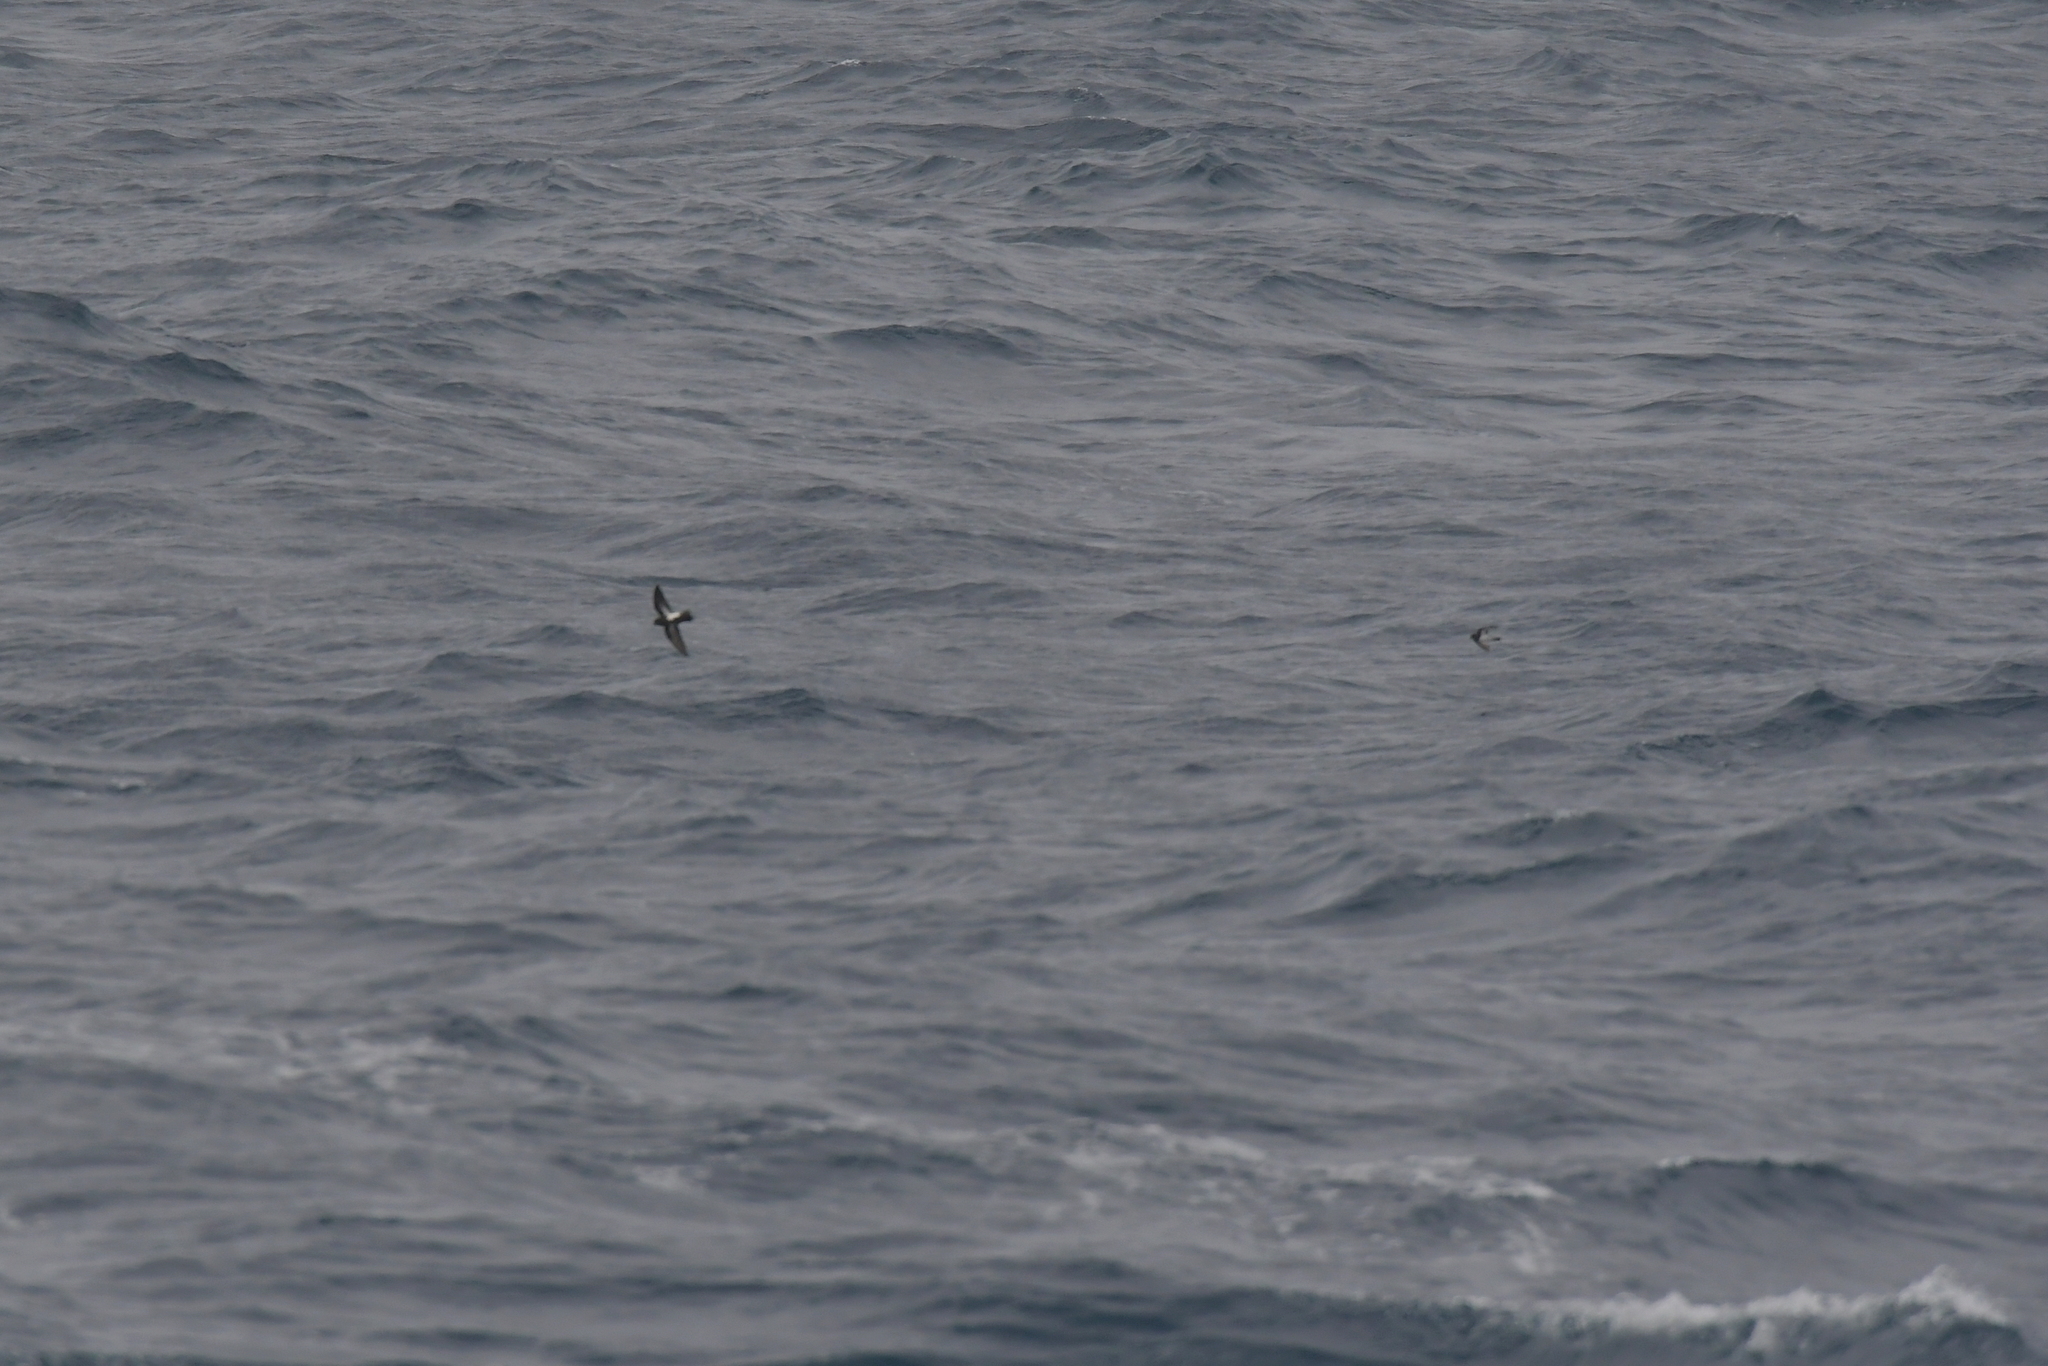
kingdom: Animalia
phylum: Chordata
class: Aves
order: Procellariiformes
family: Hydrobatidae
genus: Fregetta
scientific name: Fregetta tropica
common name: Black-bellied storm-petrel
